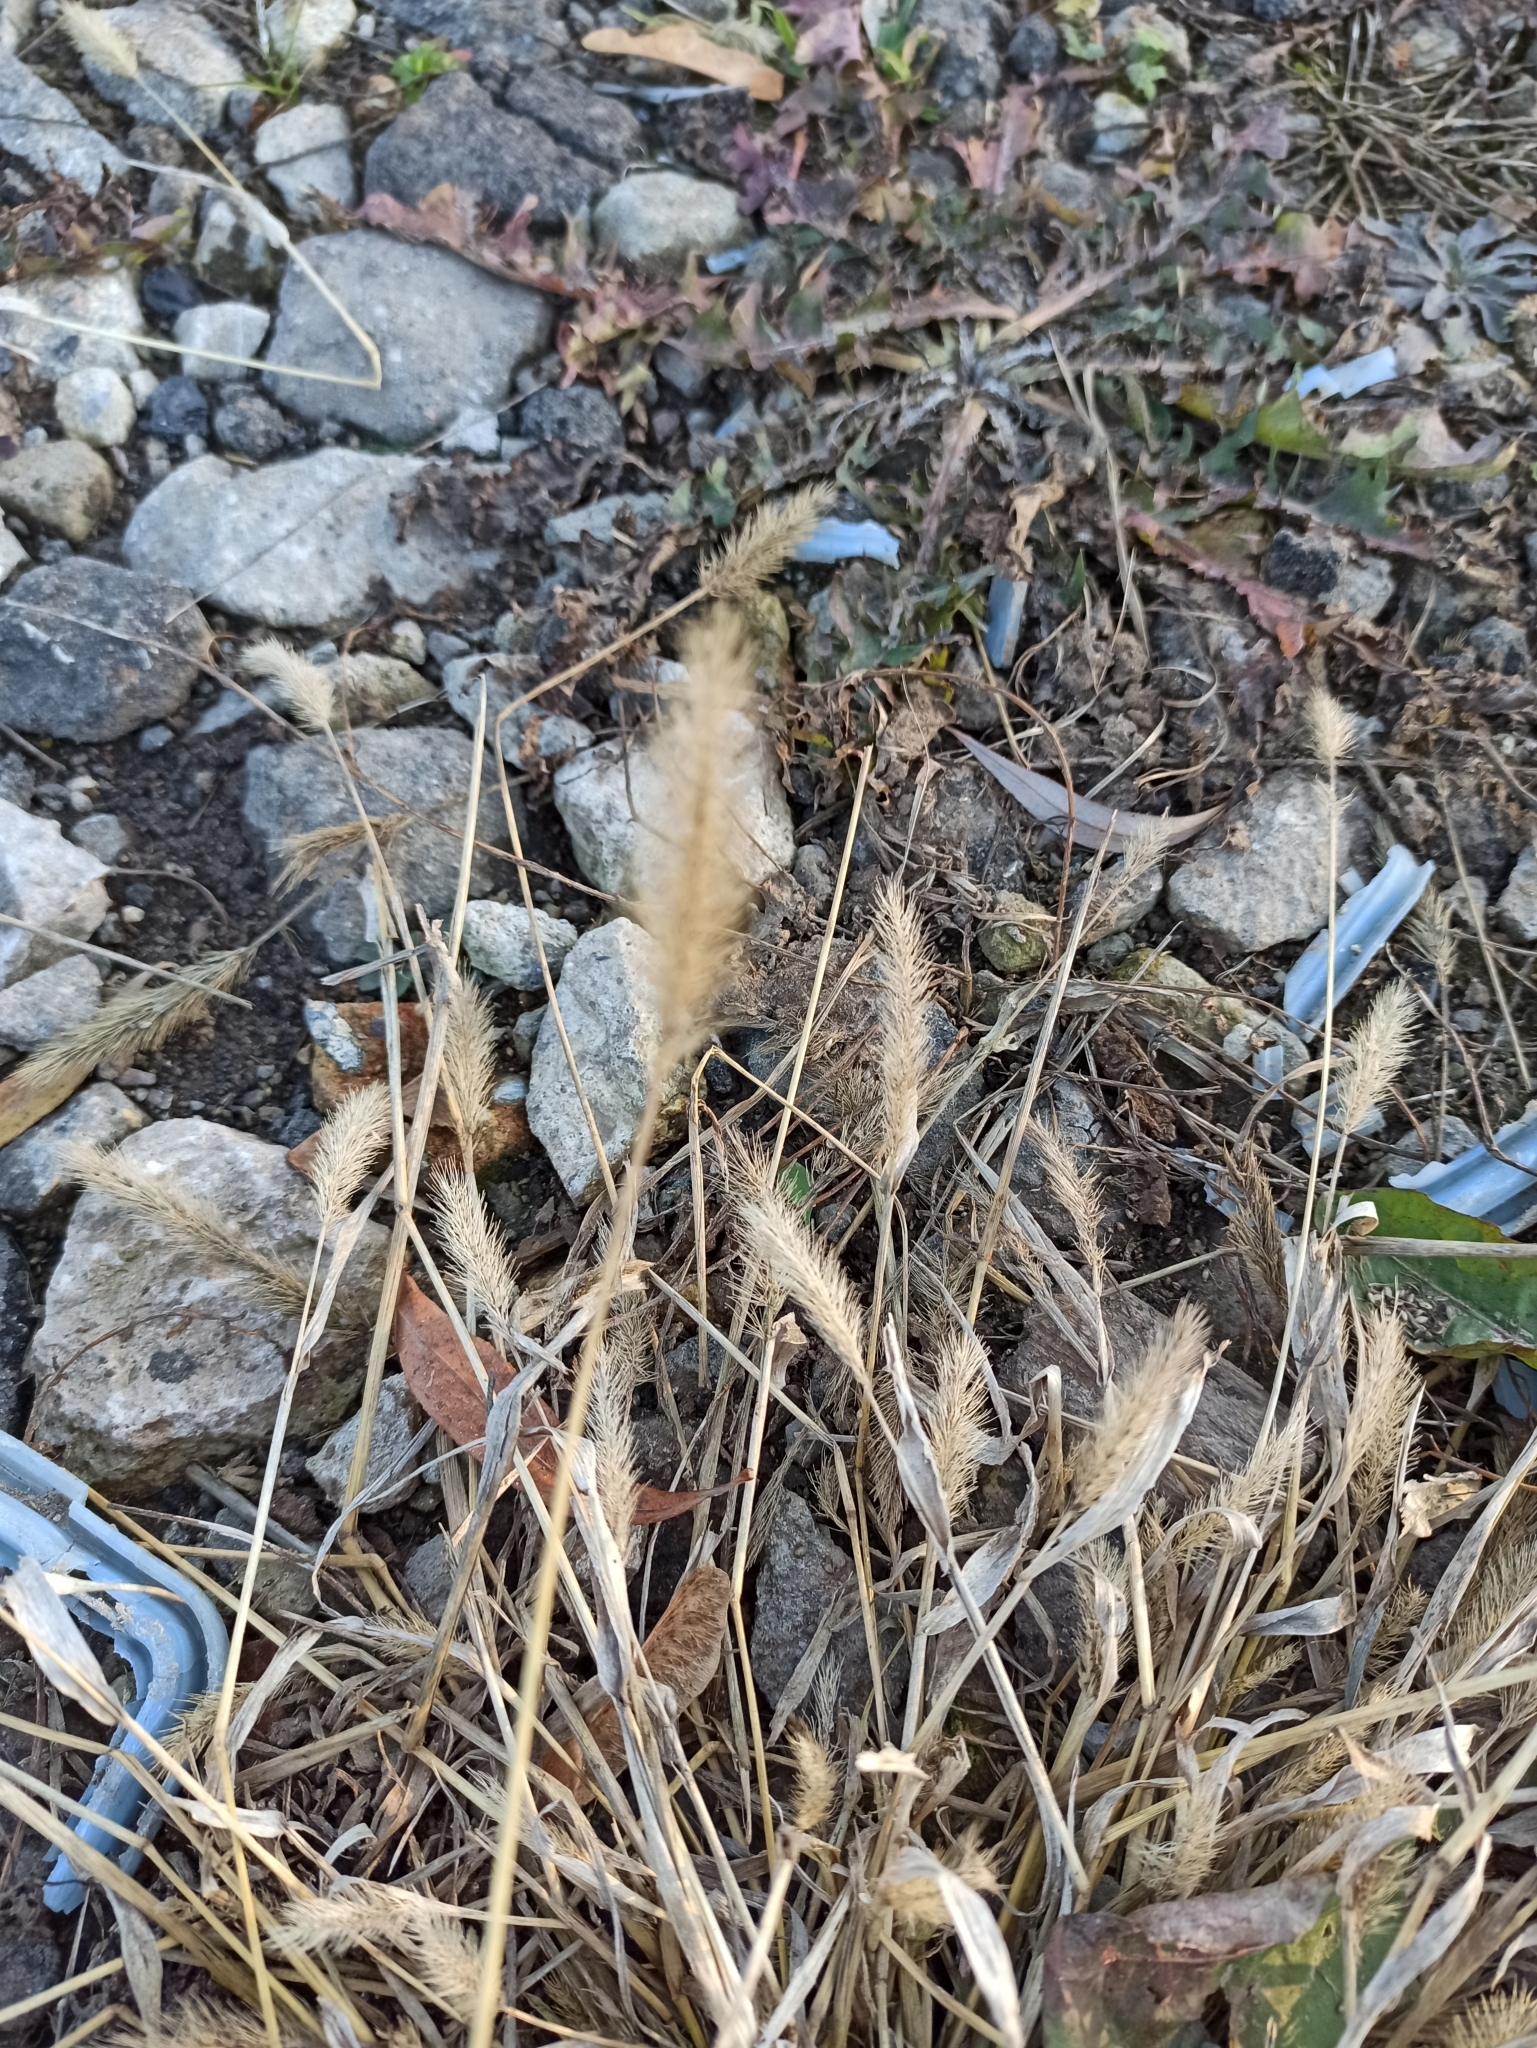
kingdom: Plantae
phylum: Tracheophyta
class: Liliopsida
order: Poales
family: Poaceae
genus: Setaria
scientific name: Setaria viridis
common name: Green bristlegrass
